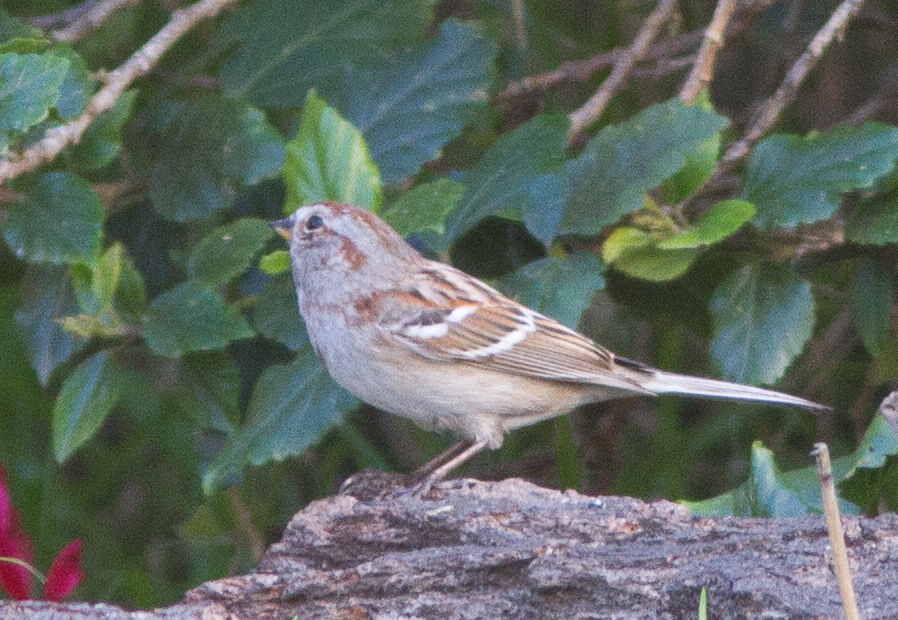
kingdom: Animalia
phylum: Chordata
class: Aves
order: Passeriformes
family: Passerellidae
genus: Spizelloides
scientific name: Spizelloides arborea
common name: American tree sparrow
